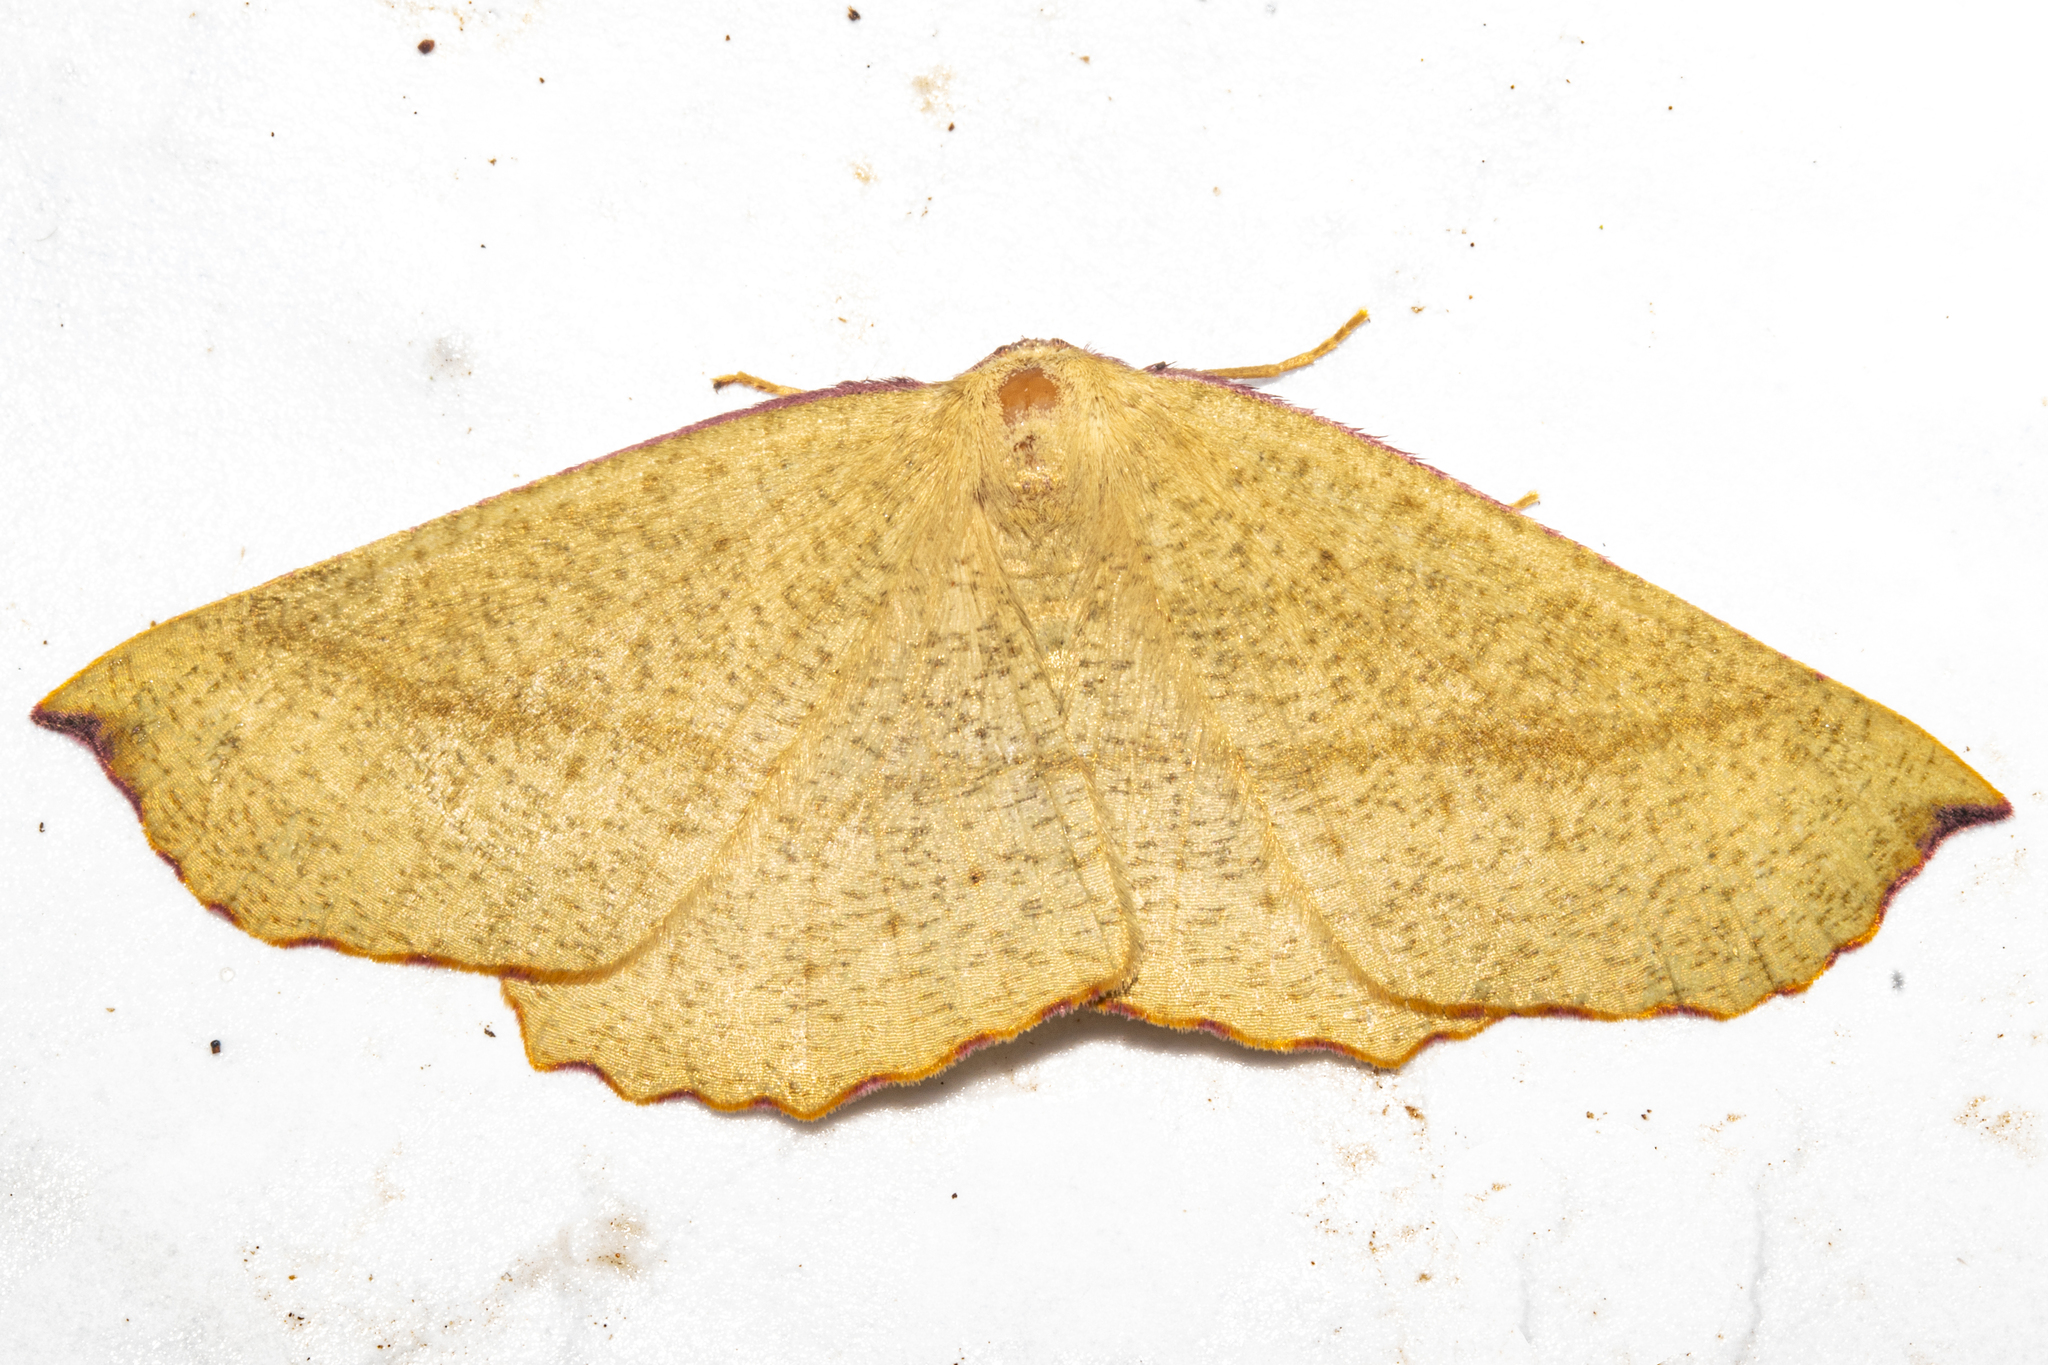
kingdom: Animalia
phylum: Arthropoda
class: Insecta
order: Lepidoptera
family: Geometridae
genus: Xyridacma
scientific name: Xyridacma alectoraria
